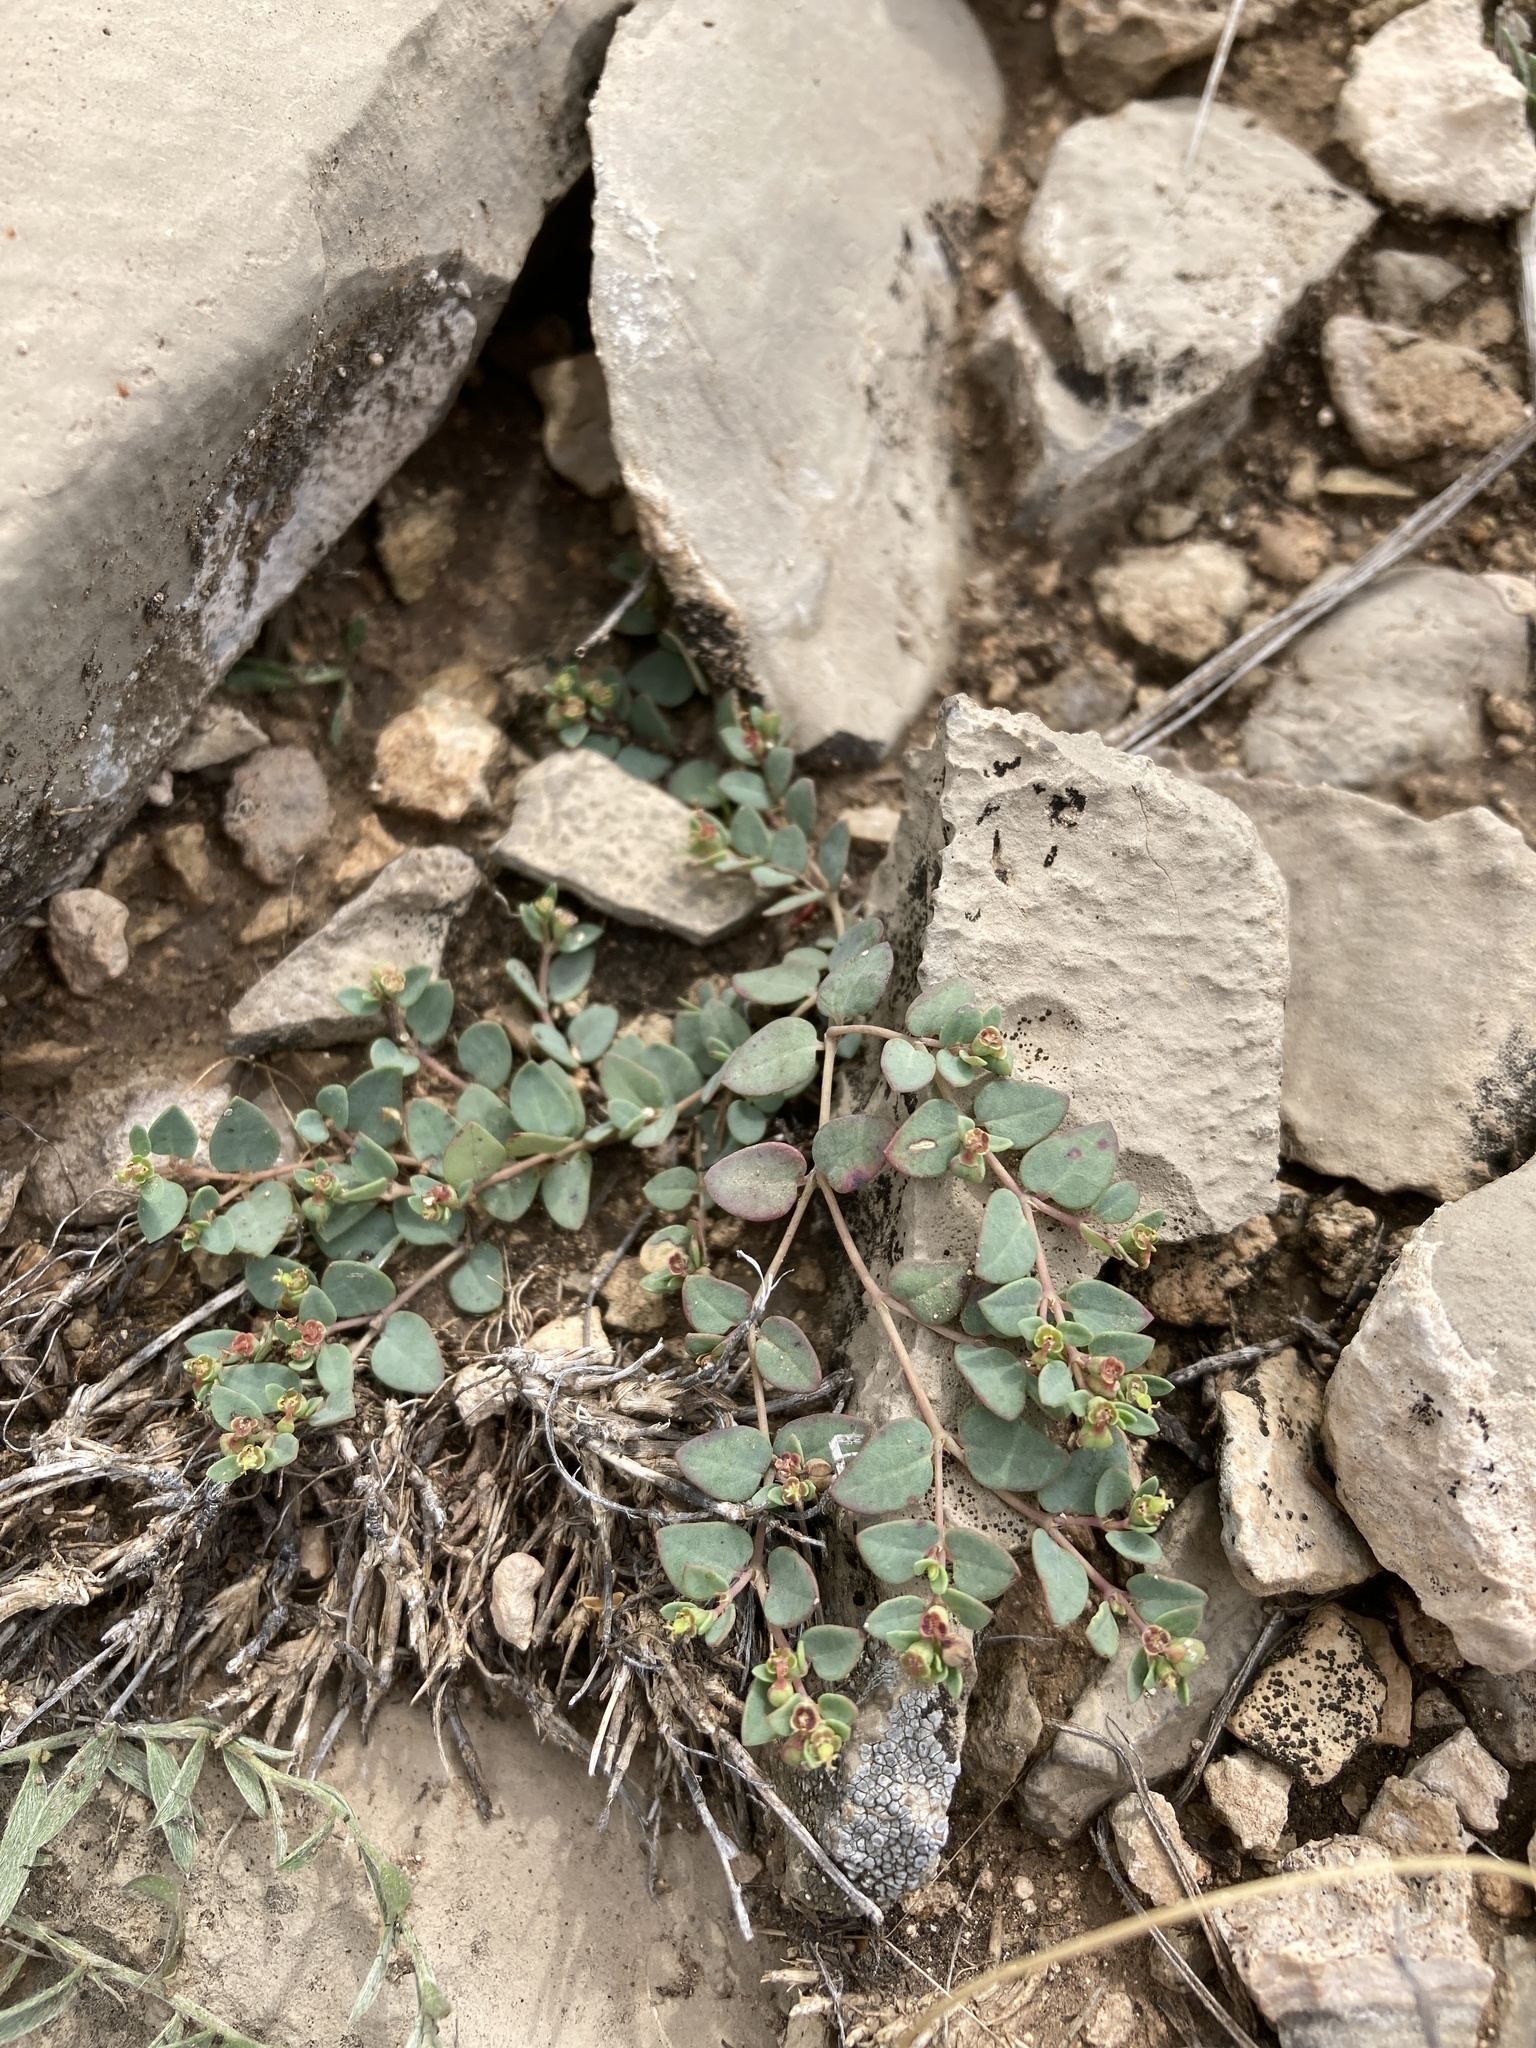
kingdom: Plantae
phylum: Tracheophyta
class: Magnoliopsida
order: Malpighiales
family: Euphorbiaceae
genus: Euphorbia
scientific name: Euphorbia fendleri
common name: Fendler's euphorbia
